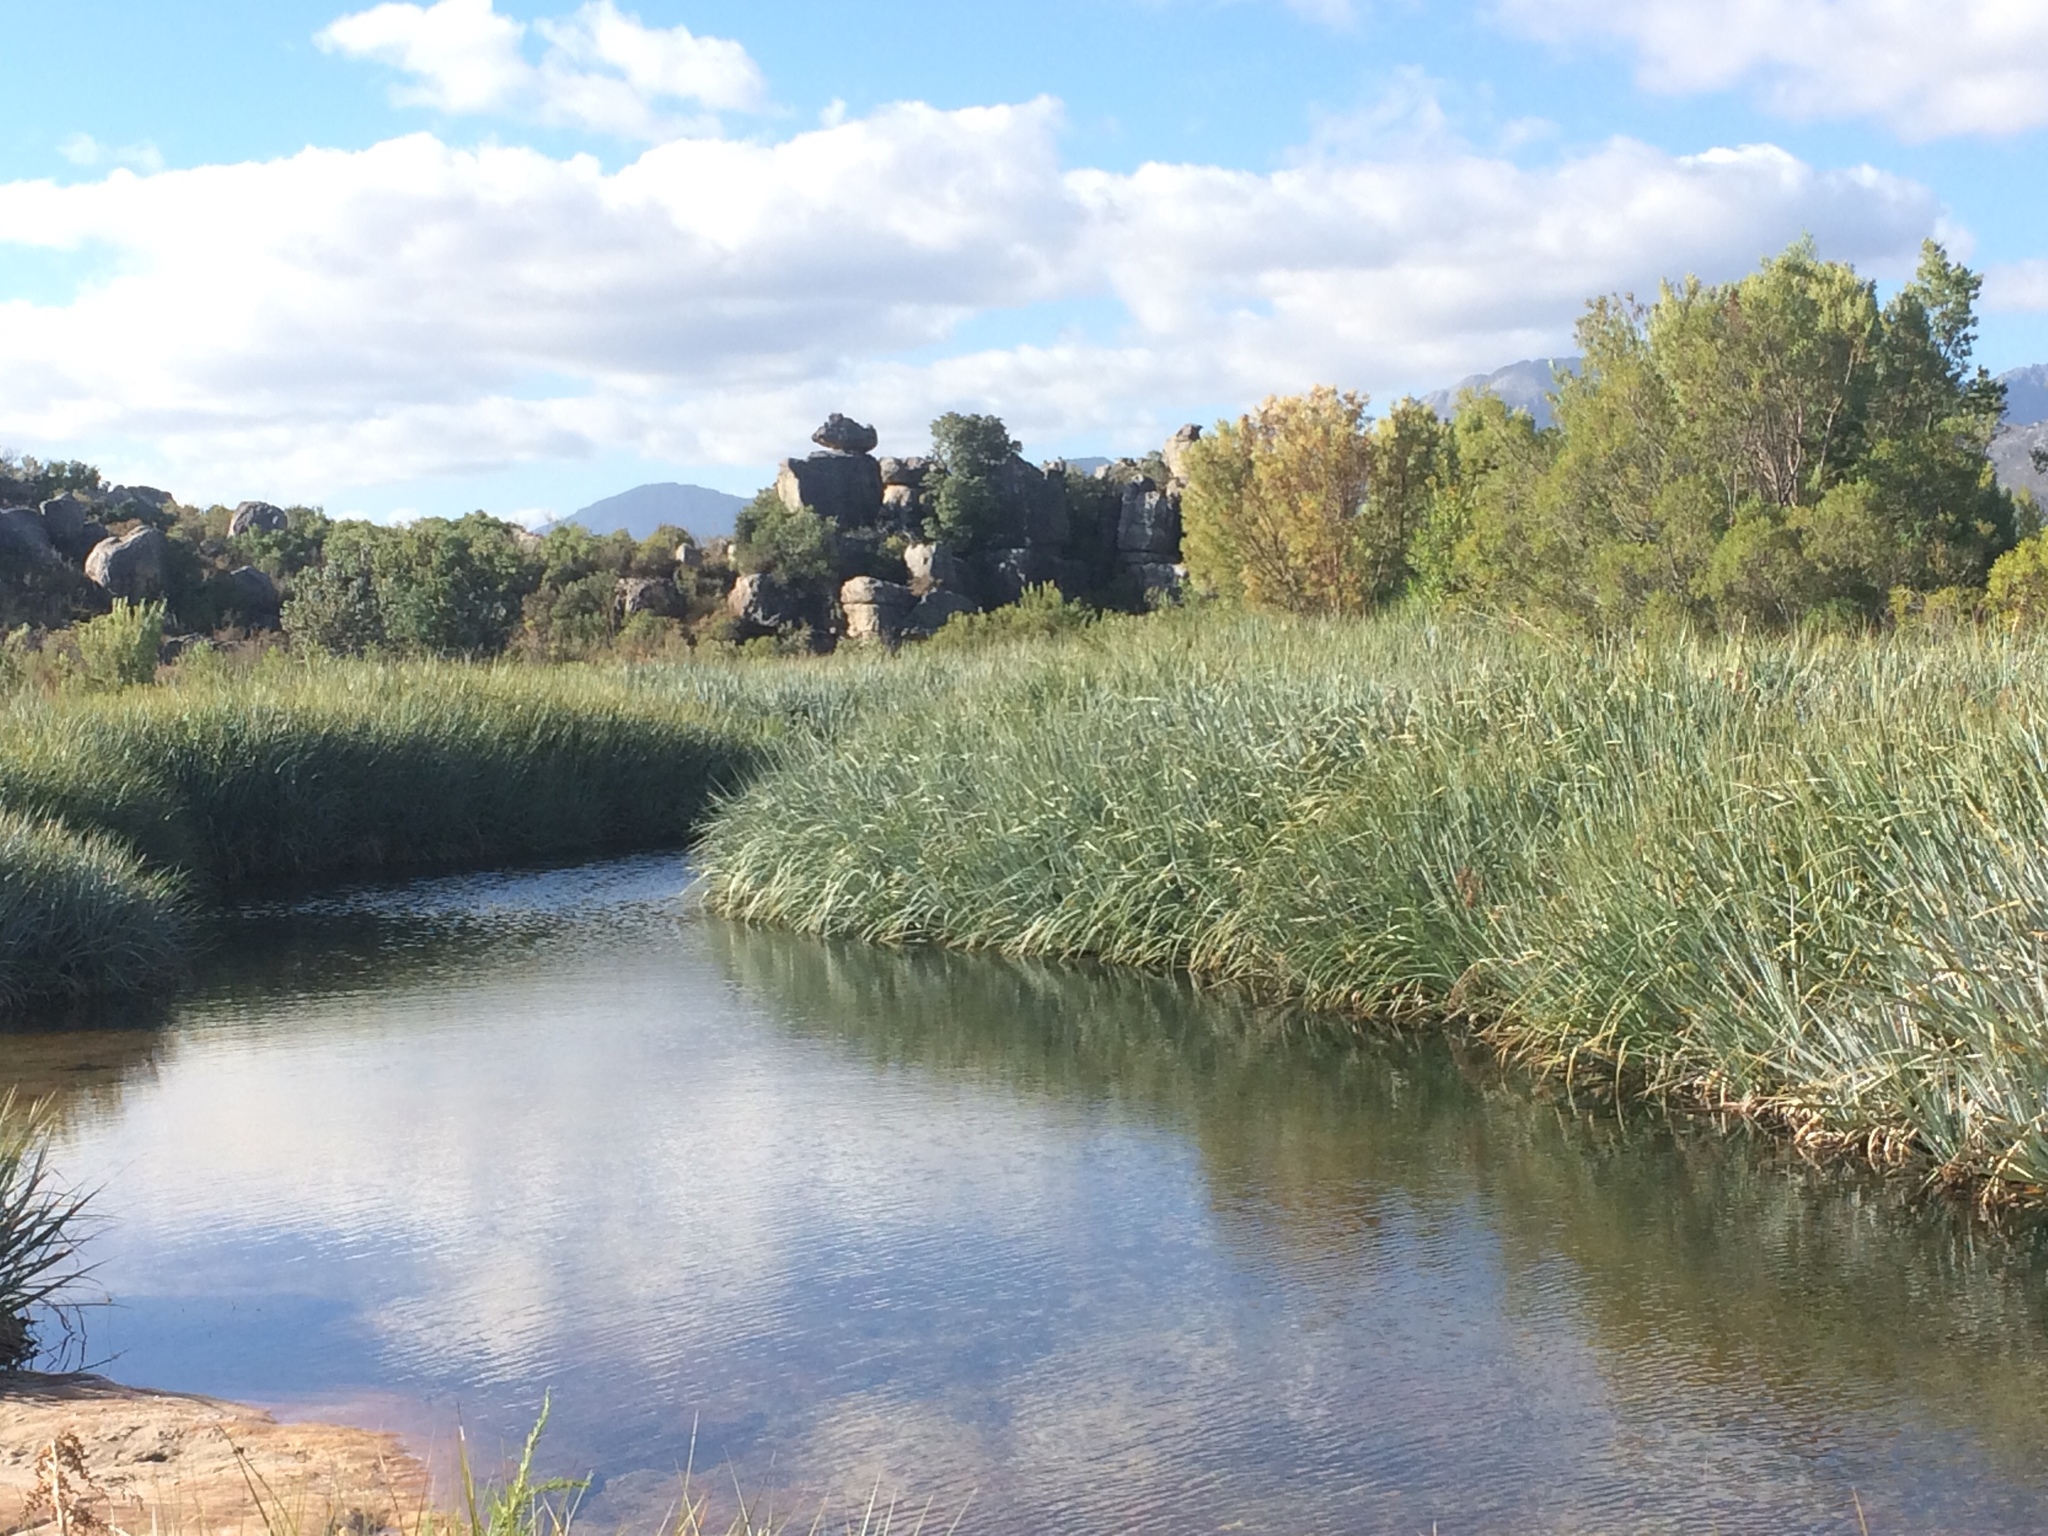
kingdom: Plantae
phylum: Tracheophyta
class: Liliopsida
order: Poales
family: Thurniaceae
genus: Prionium
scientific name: Prionium serratum
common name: Palmiet
